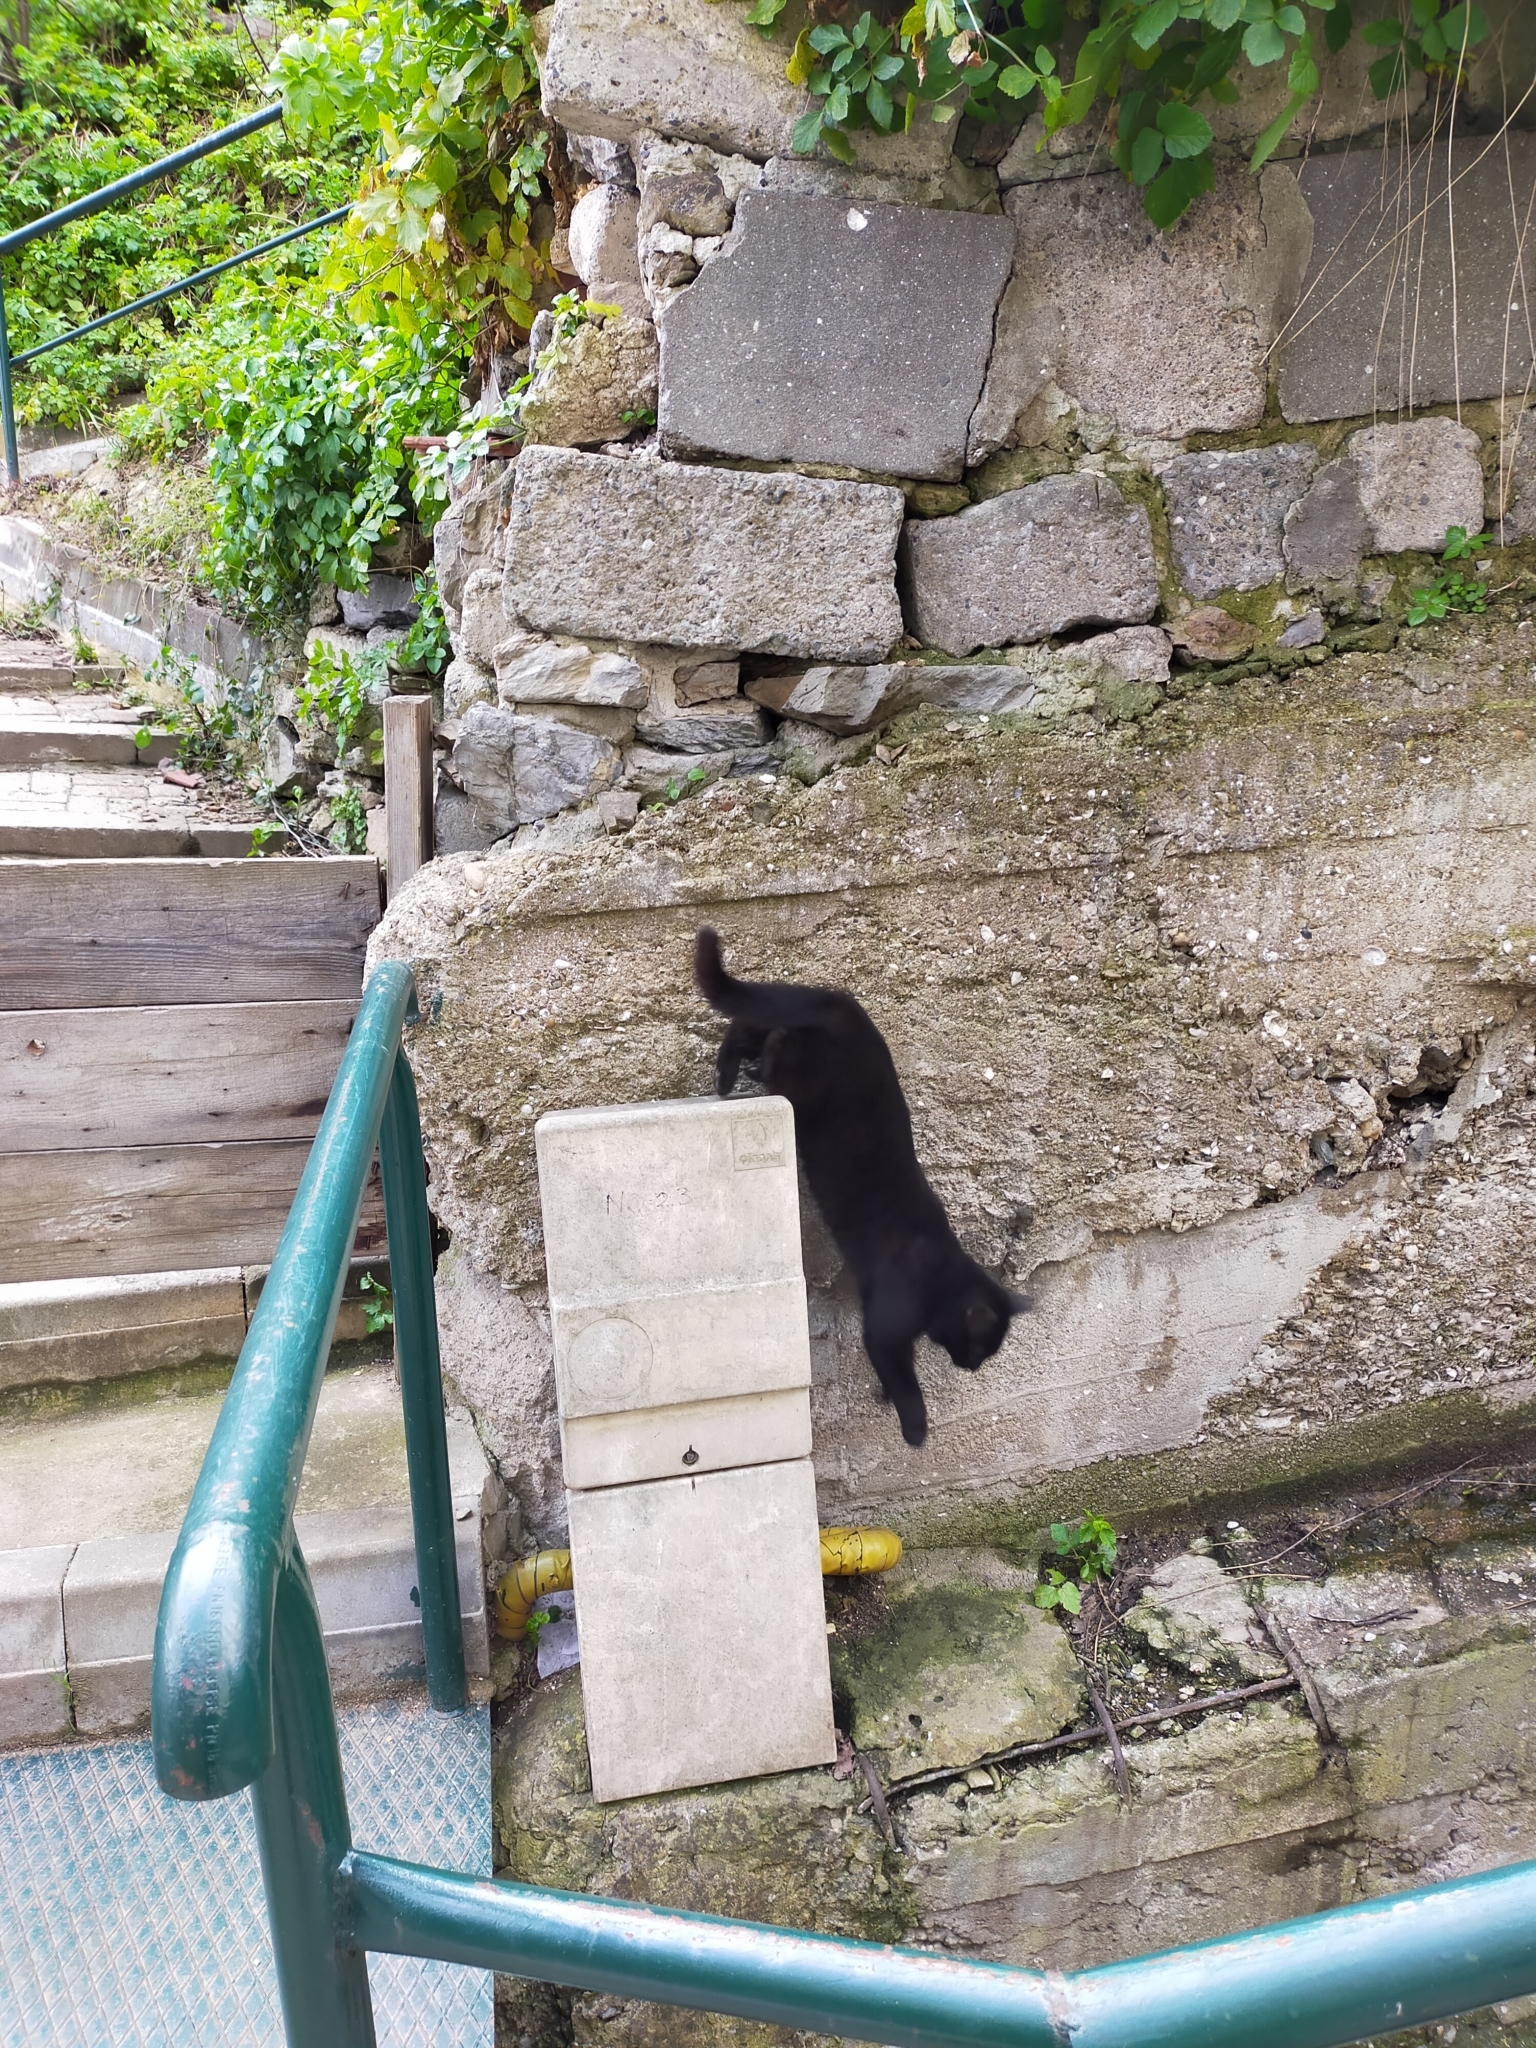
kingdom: Animalia
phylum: Chordata
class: Mammalia
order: Carnivora
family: Felidae
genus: Felis
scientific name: Felis catus
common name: Domestic cat
